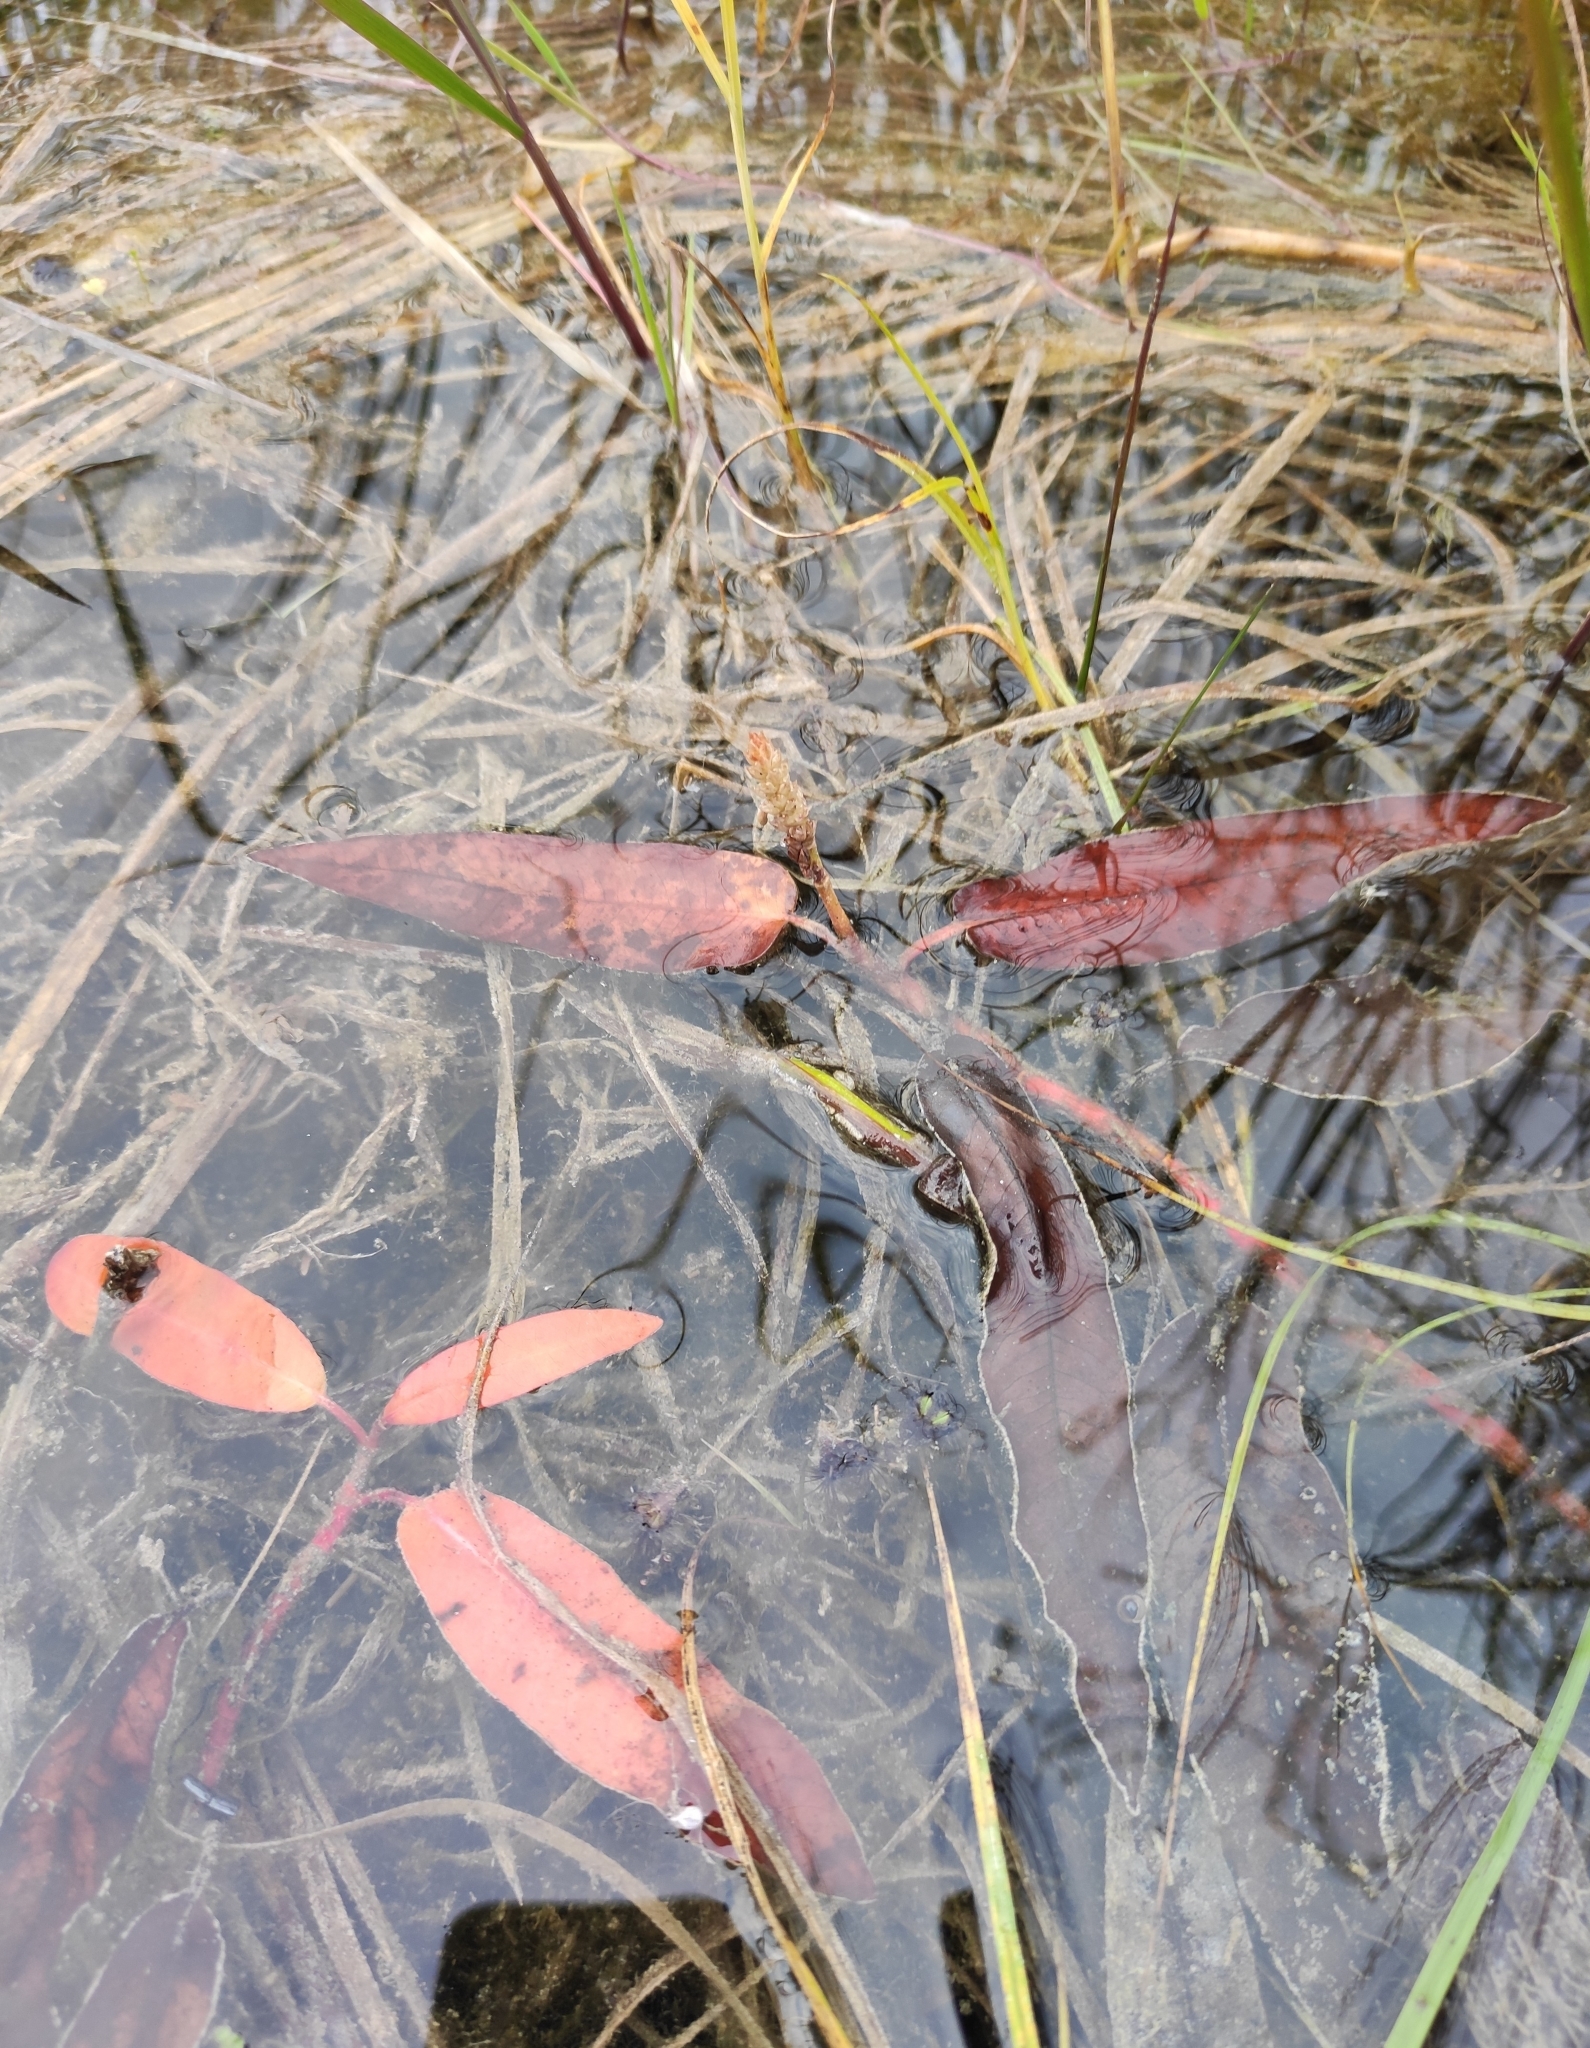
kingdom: Plantae
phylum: Tracheophyta
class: Magnoliopsida
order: Caryophyllales
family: Polygonaceae
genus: Persicaria
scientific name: Persicaria amphibia
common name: Amphibious bistort
